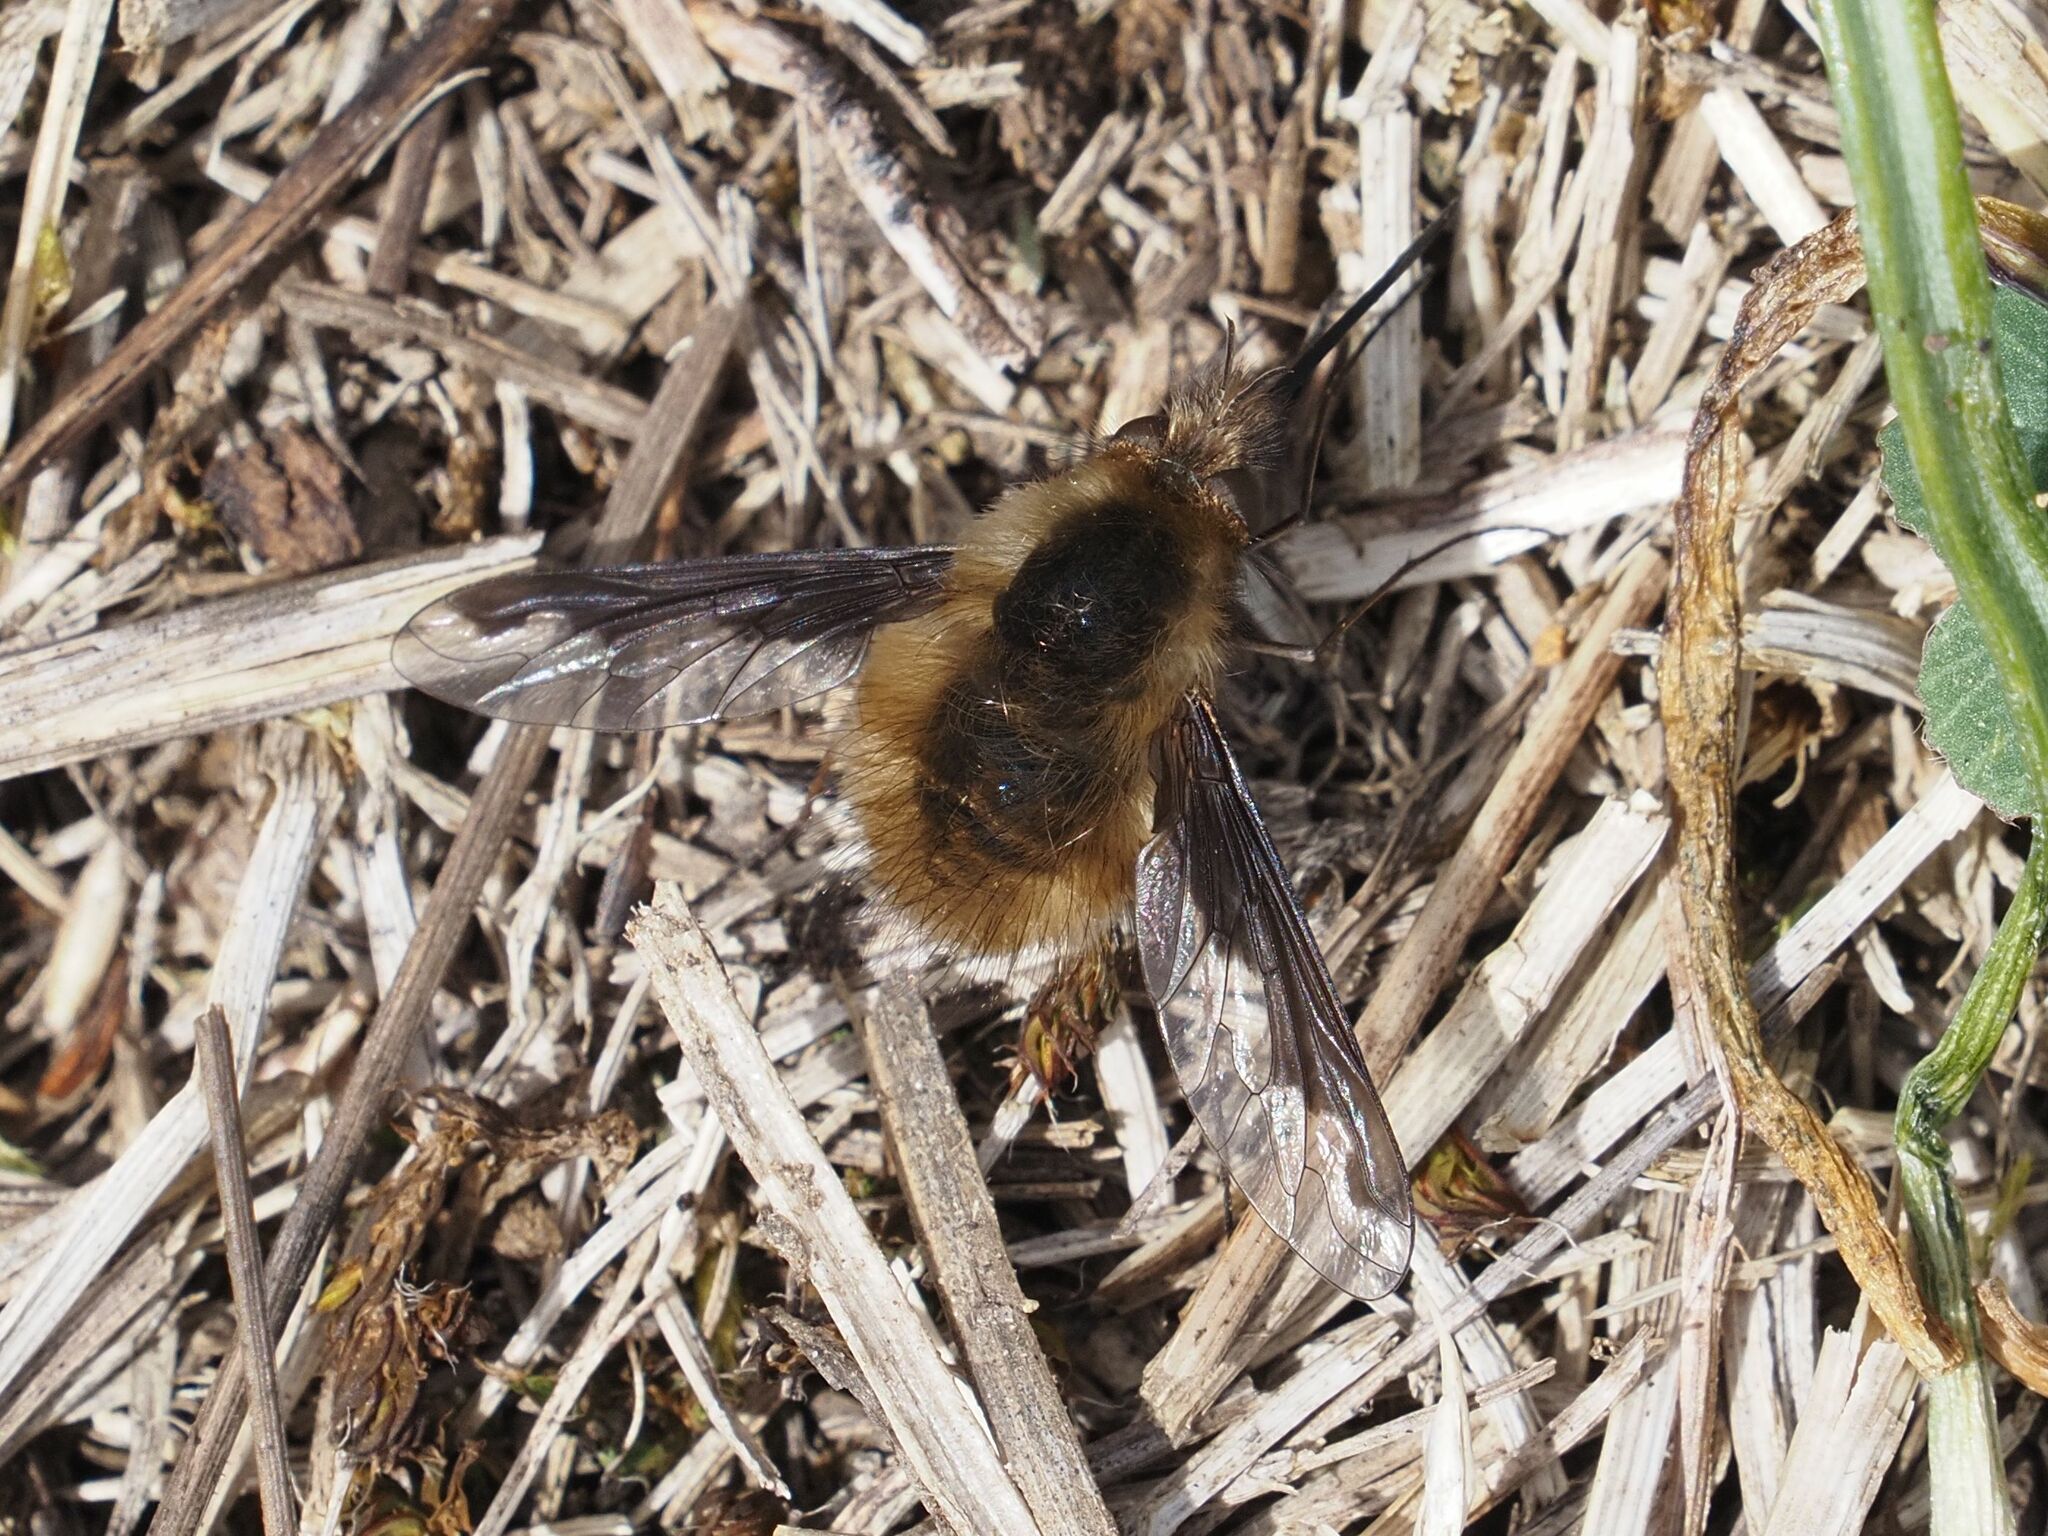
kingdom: Animalia
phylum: Arthropoda
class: Insecta
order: Diptera
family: Bombyliidae
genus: Bombylius
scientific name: Bombylius major
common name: Bee fly
